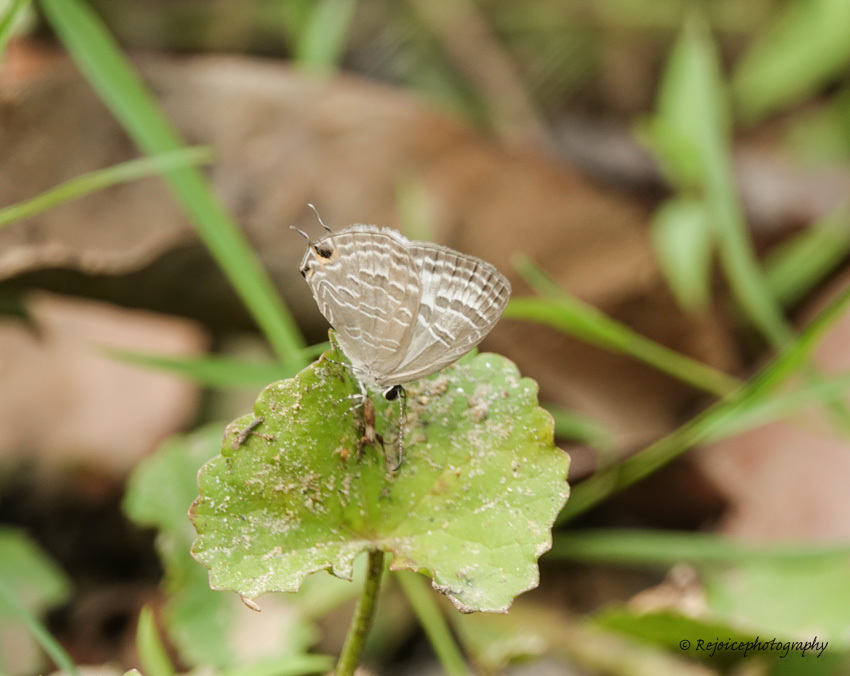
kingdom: Animalia
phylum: Arthropoda
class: Insecta
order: Lepidoptera
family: Lycaenidae
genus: Jamides
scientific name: Jamides bochus
